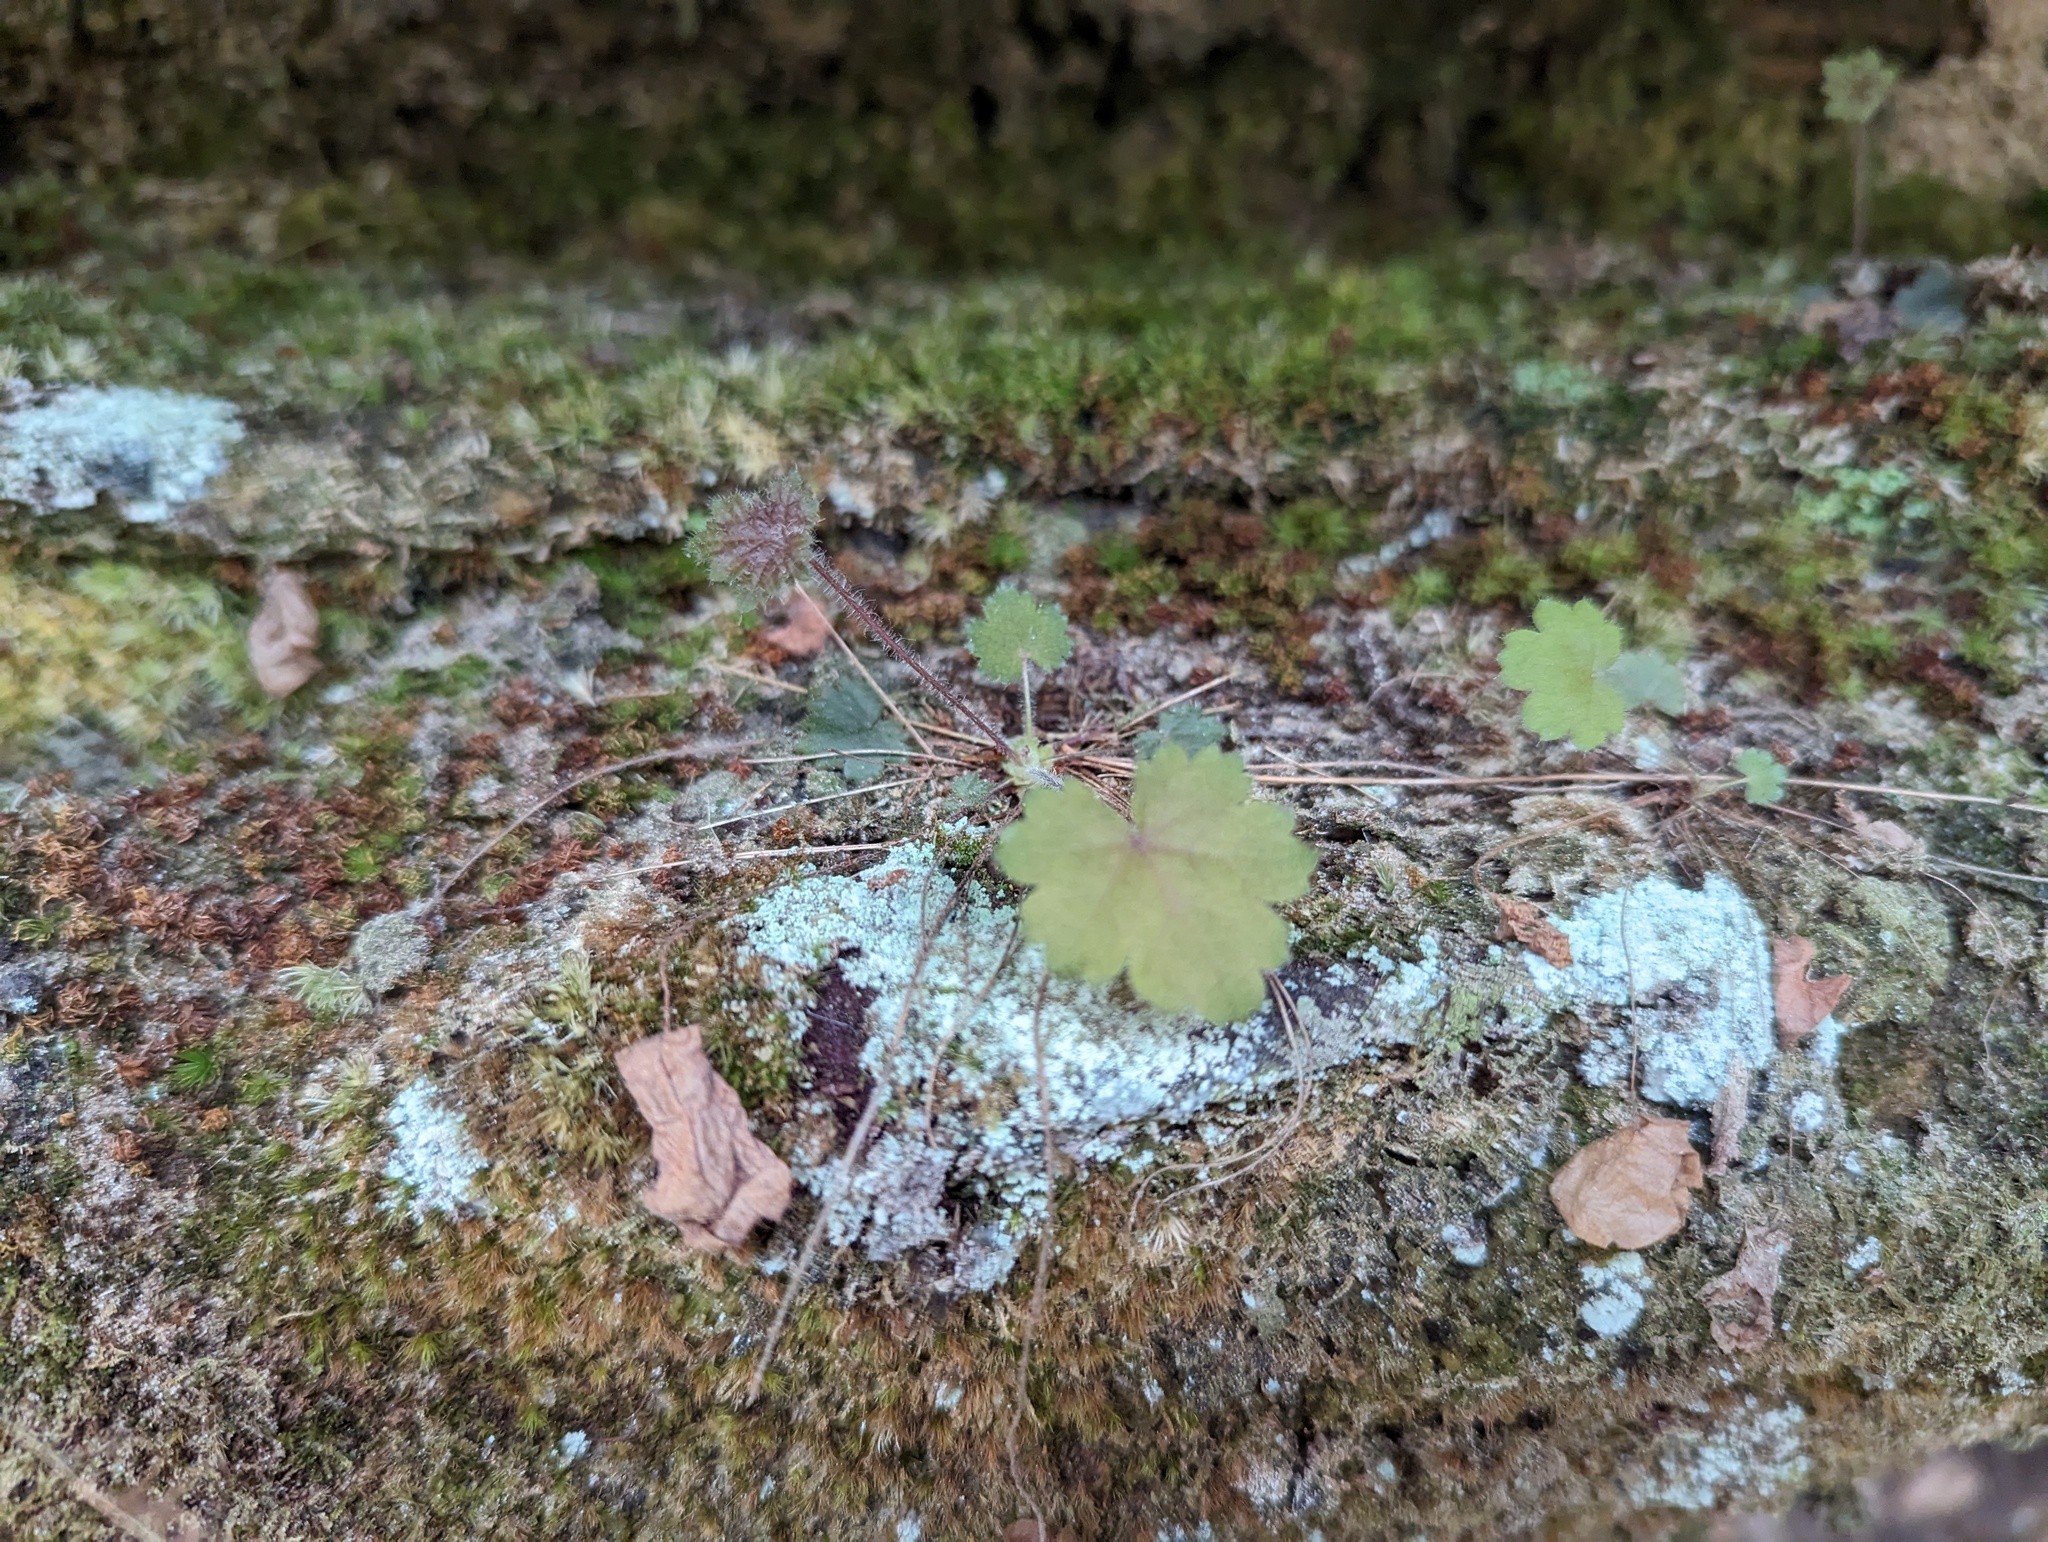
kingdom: Plantae
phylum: Tracheophyta
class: Magnoliopsida
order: Saxifragales
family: Saxifragaceae
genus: Heuchera
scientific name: Heuchera missouriensis
